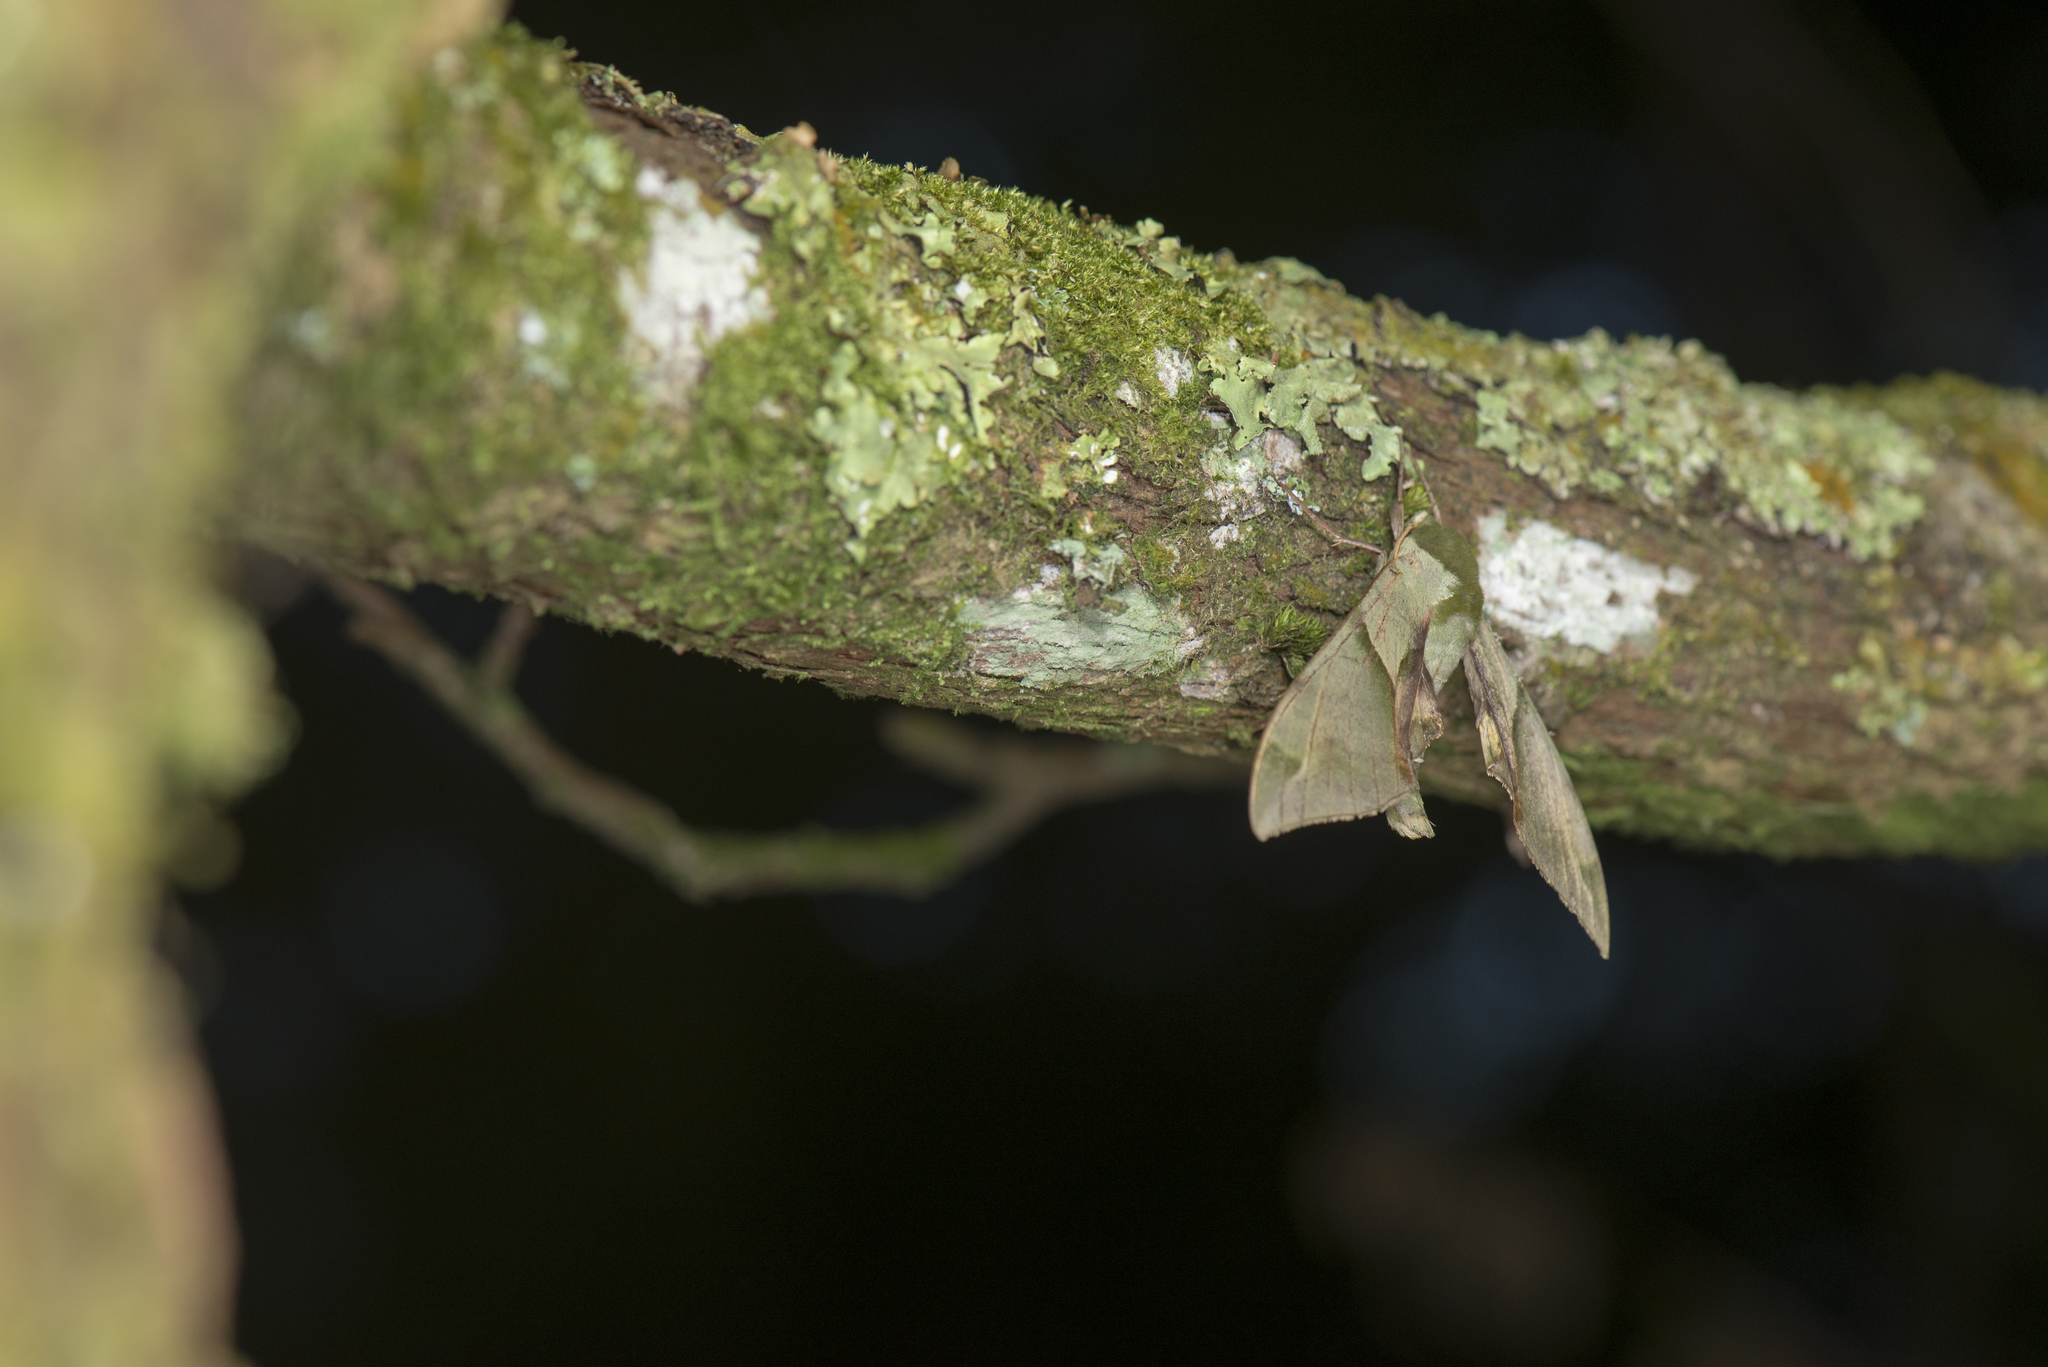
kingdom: Animalia
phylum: Arthropoda
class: Insecta
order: Lepidoptera
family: Sphingidae
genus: Callambulyx
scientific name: Callambulyx tatarinovii
